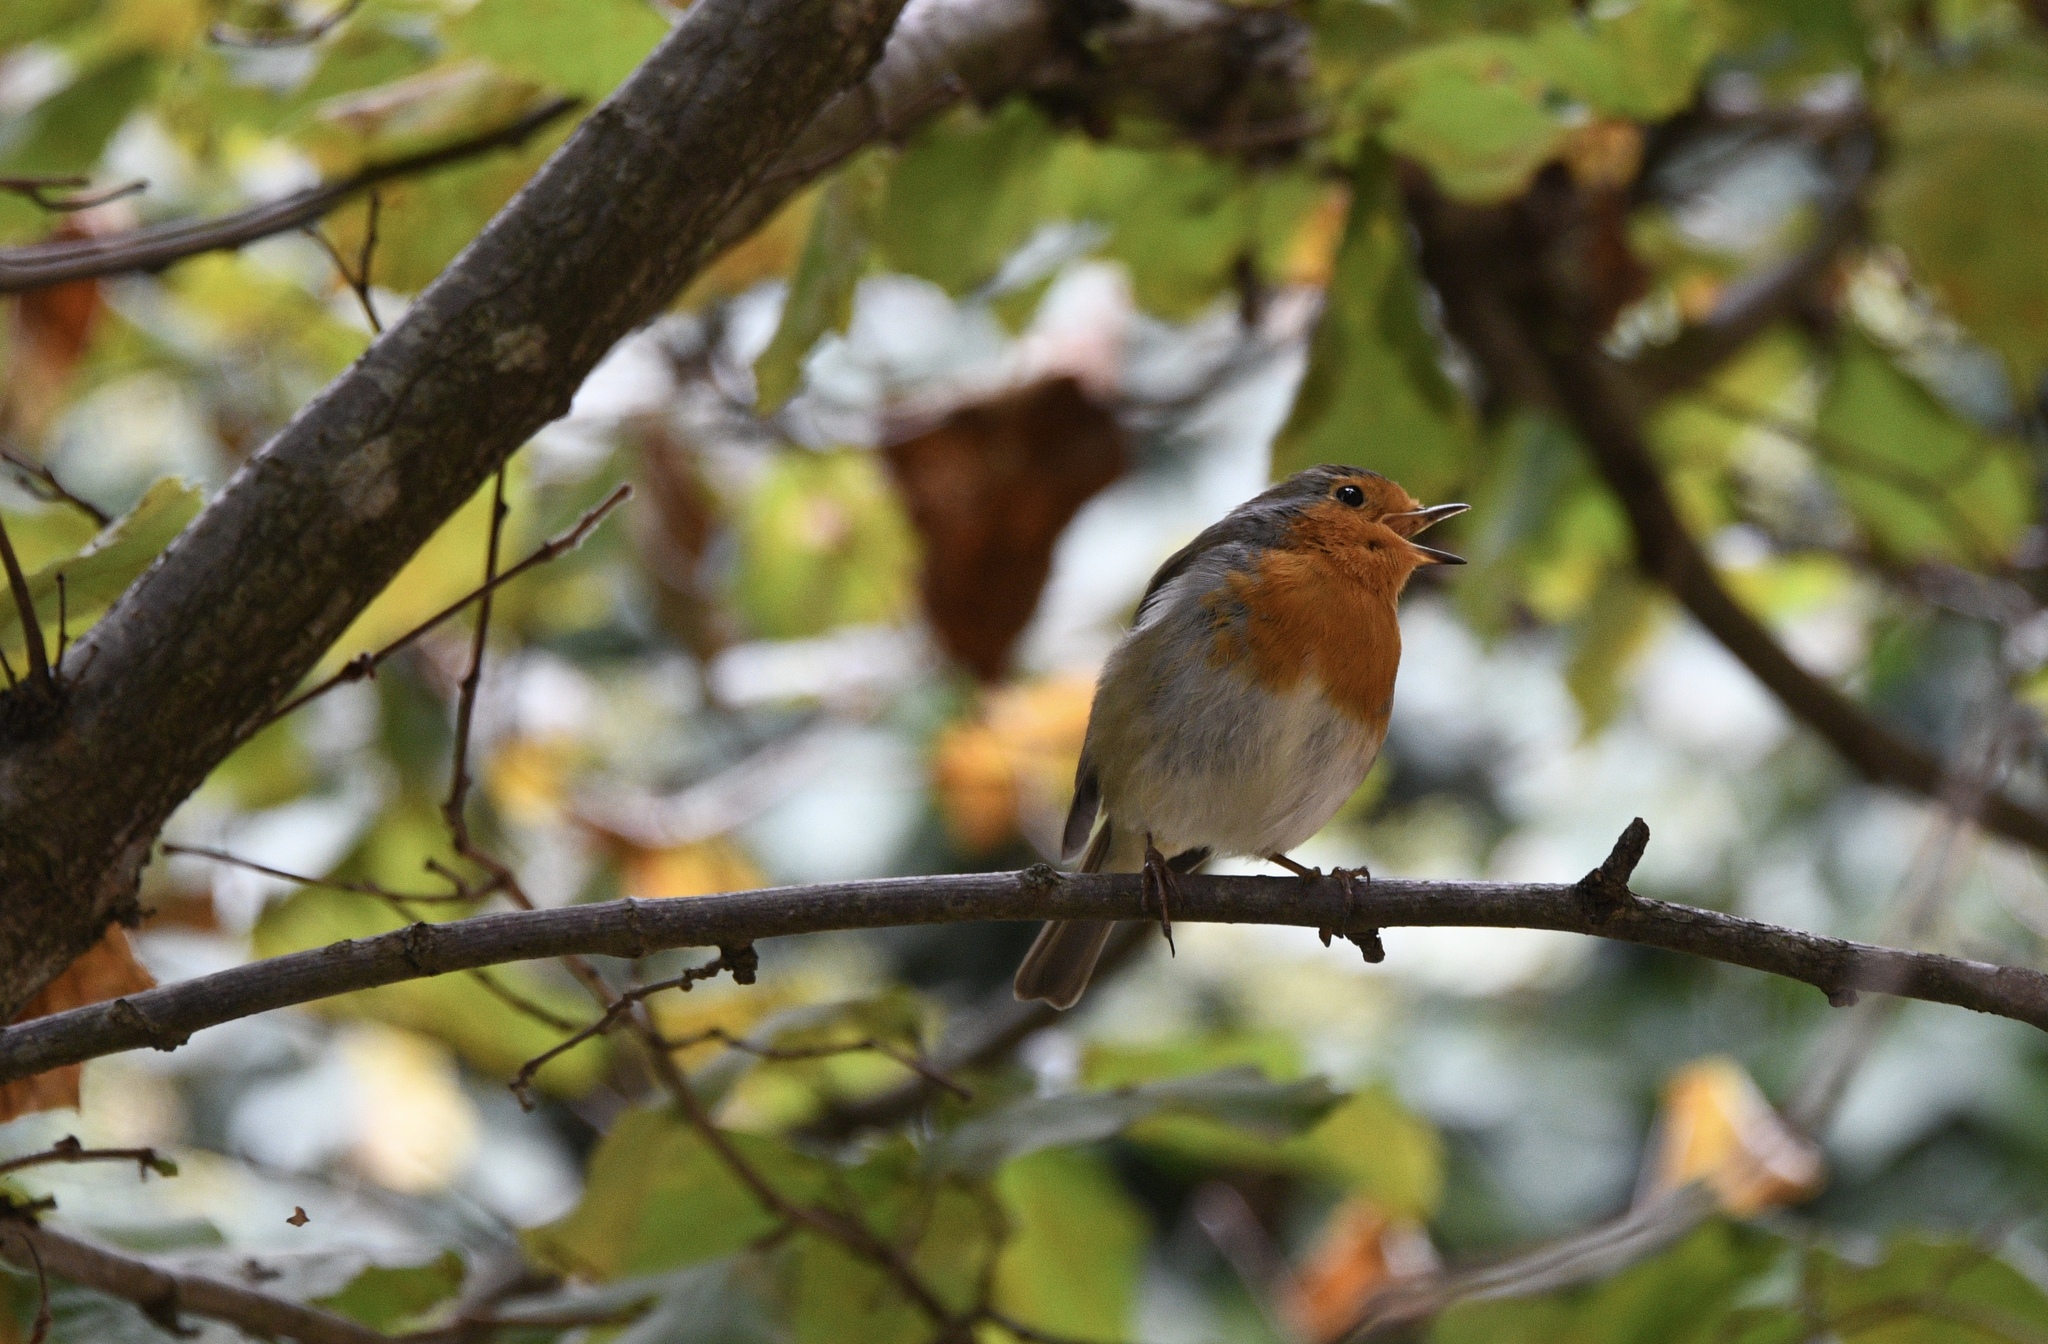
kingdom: Animalia
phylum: Chordata
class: Aves
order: Passeriformes
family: Muscicapidae
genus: Erithacus
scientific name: Erithacus rubecula
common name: European robin
